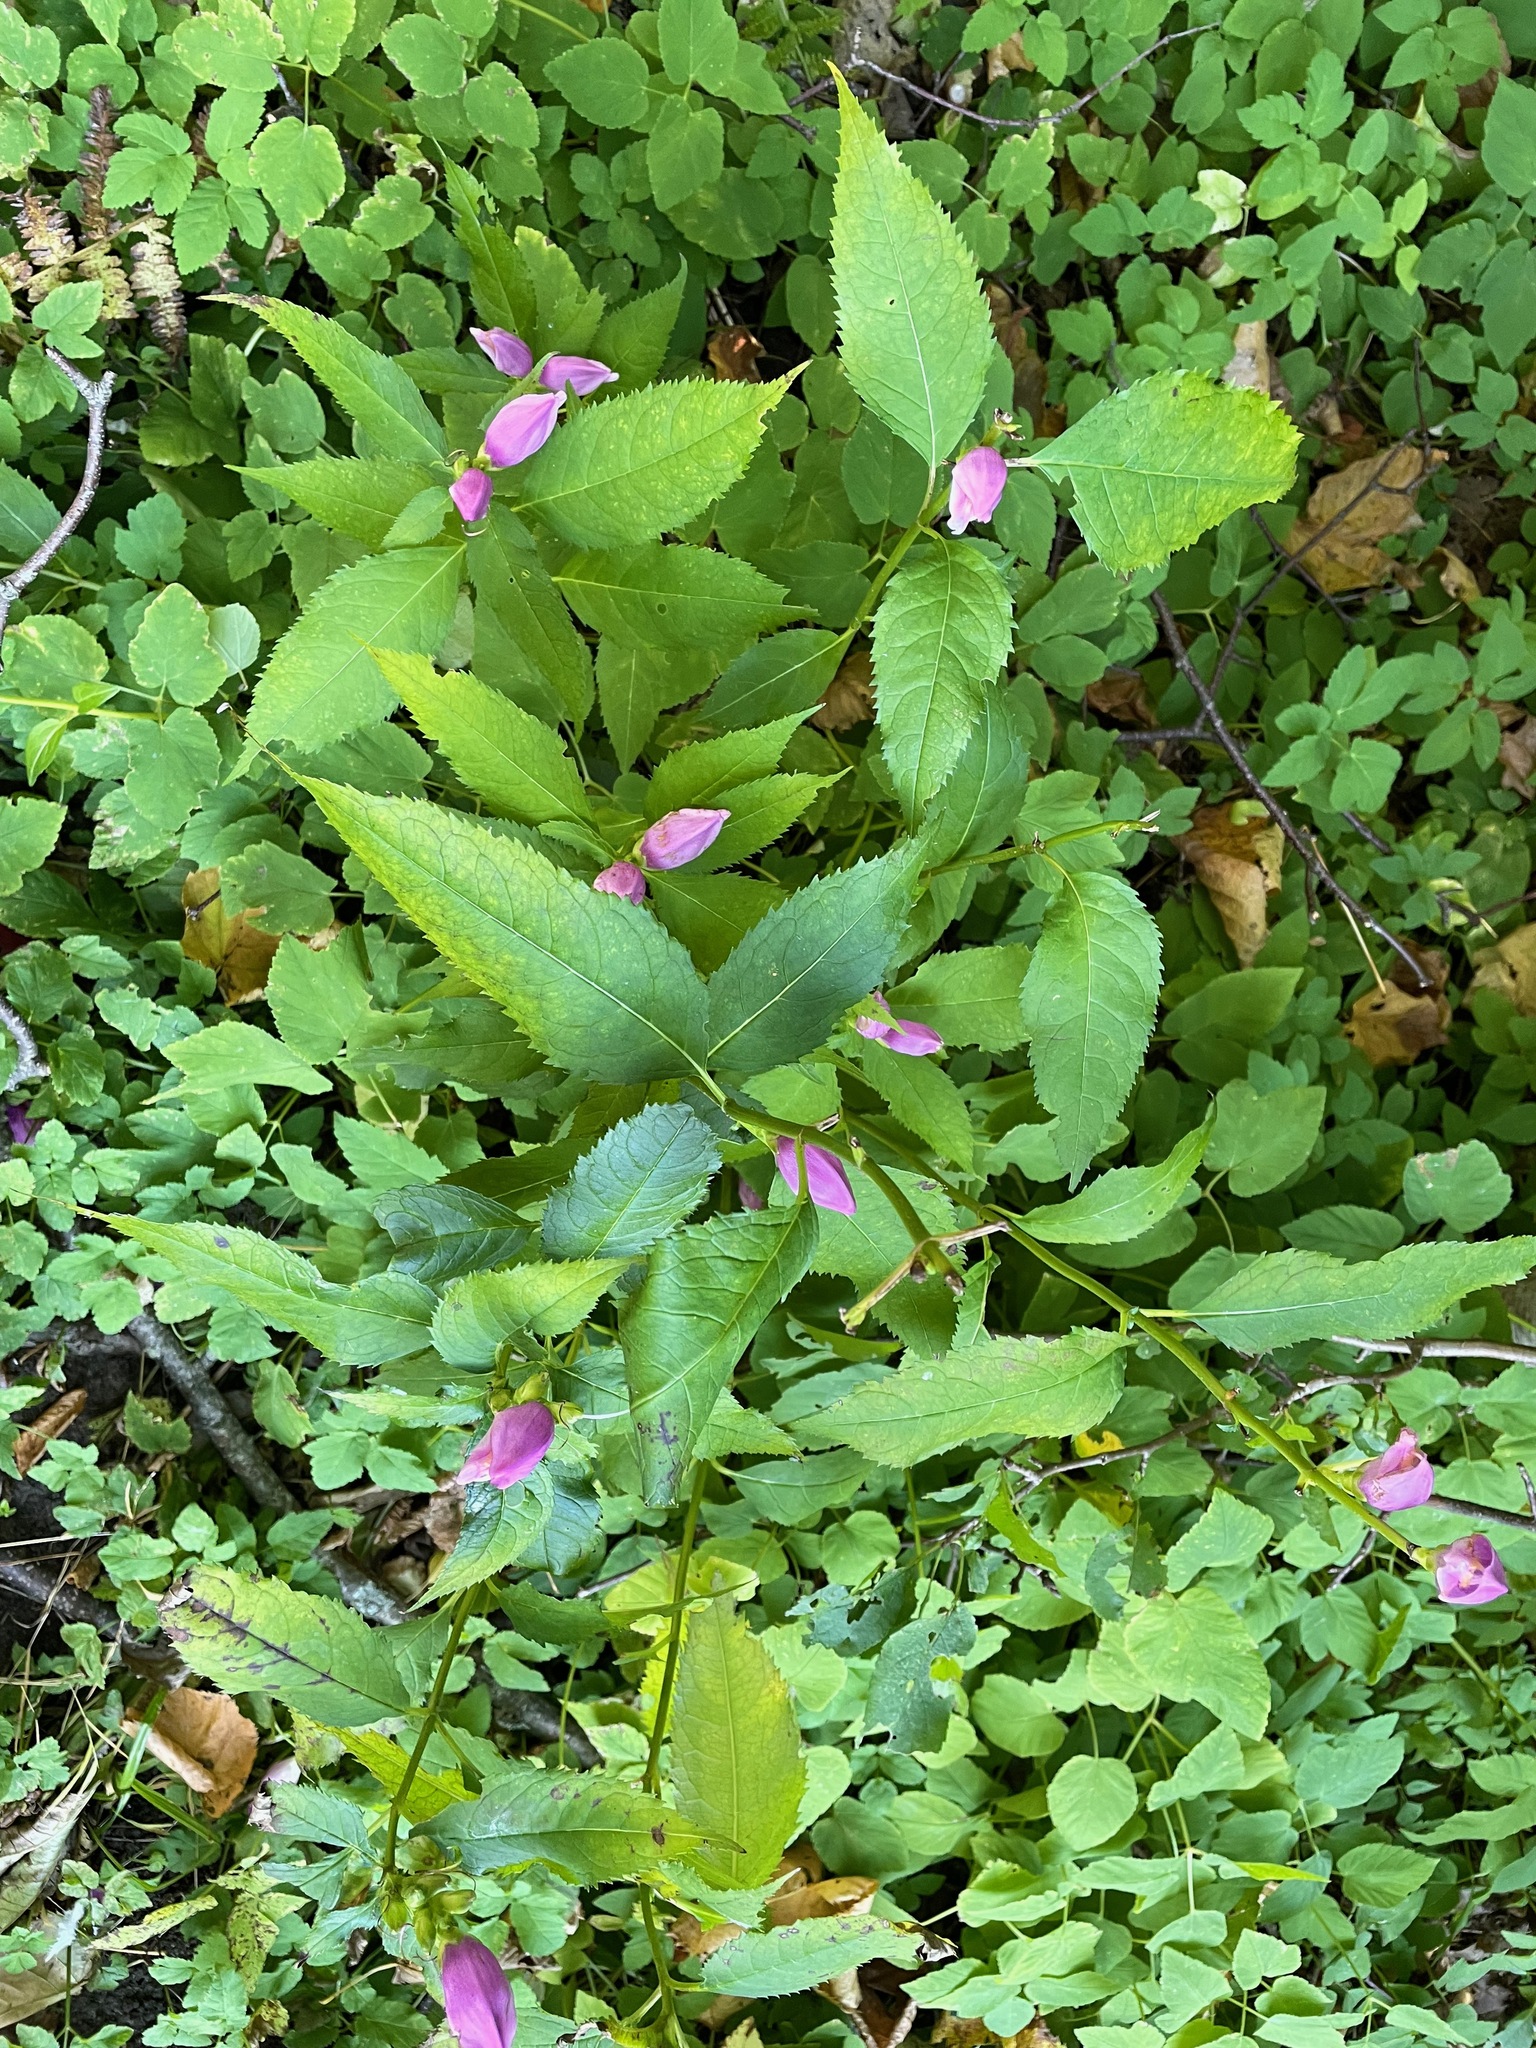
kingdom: Plantae
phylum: Tracheophyta
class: Magnoliopsida
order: Lamiales
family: Plantaginaceae
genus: Chelone
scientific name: Chelone lyonii
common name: Pink turtlehead
